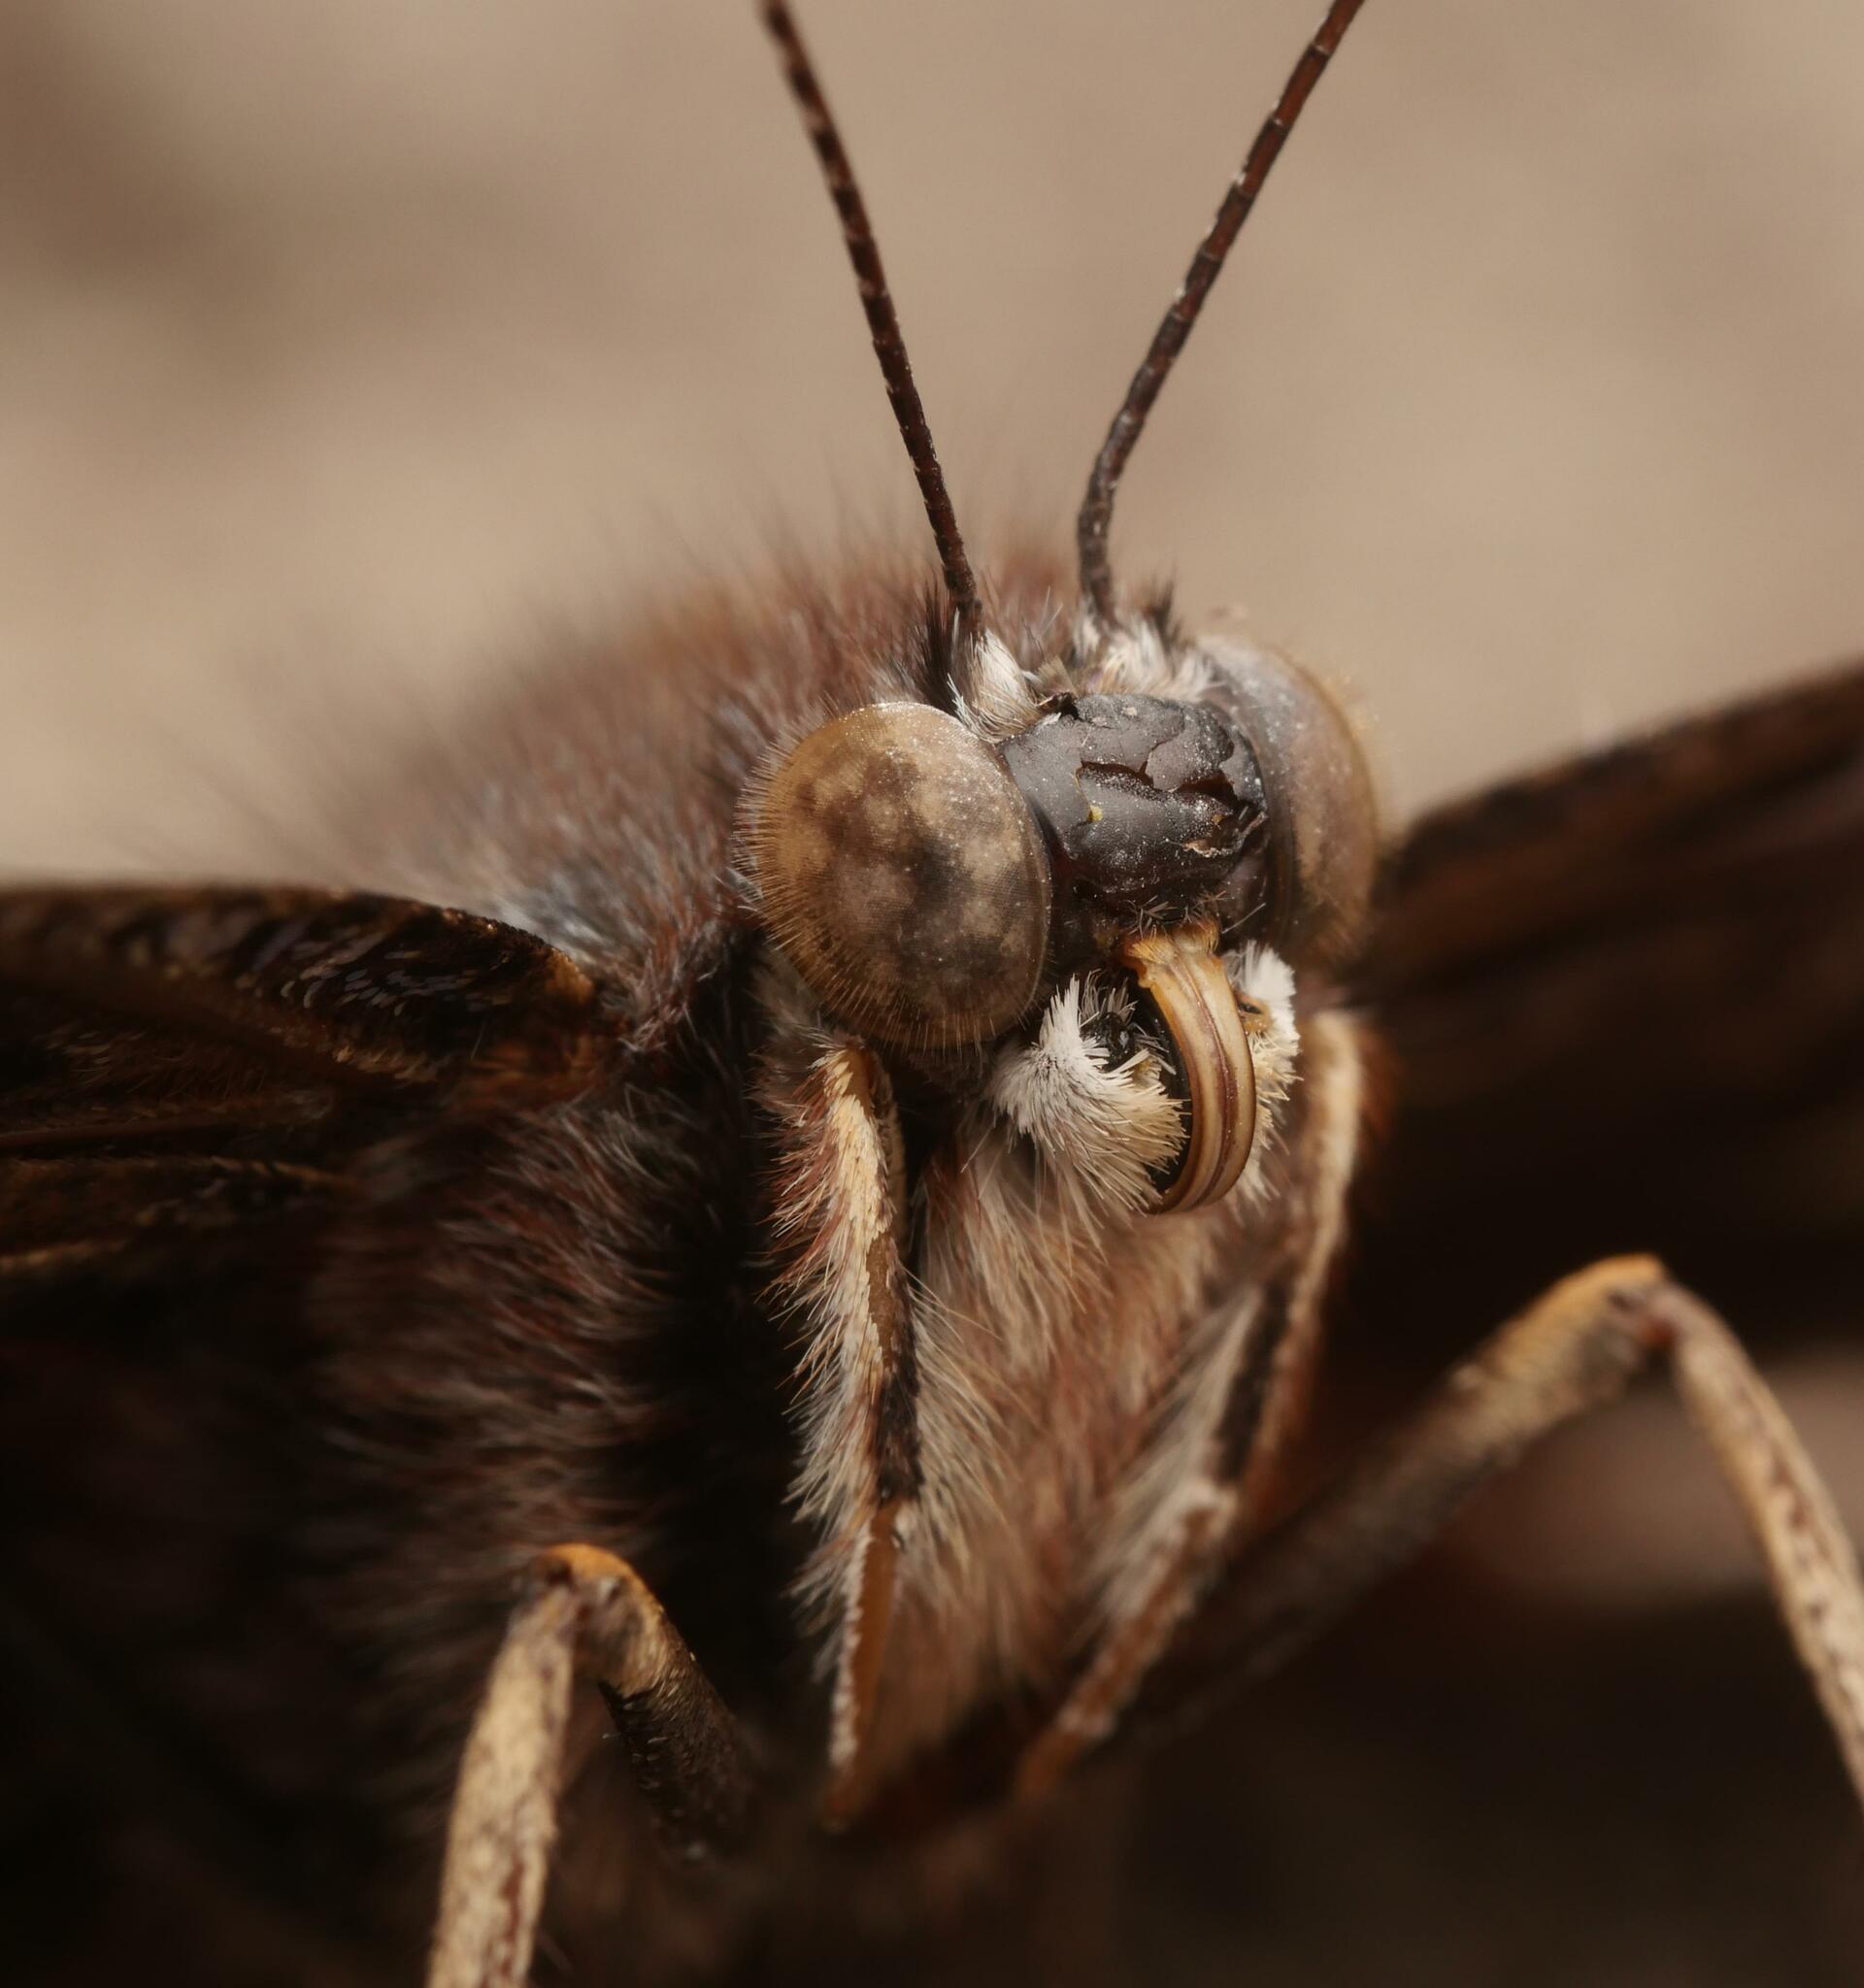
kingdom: Animalia
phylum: Arthropoda
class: Insecta
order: Lepidoptera
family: Nymphalidae
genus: Vanessa
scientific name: Vanessa atalanta
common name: Red admiral
